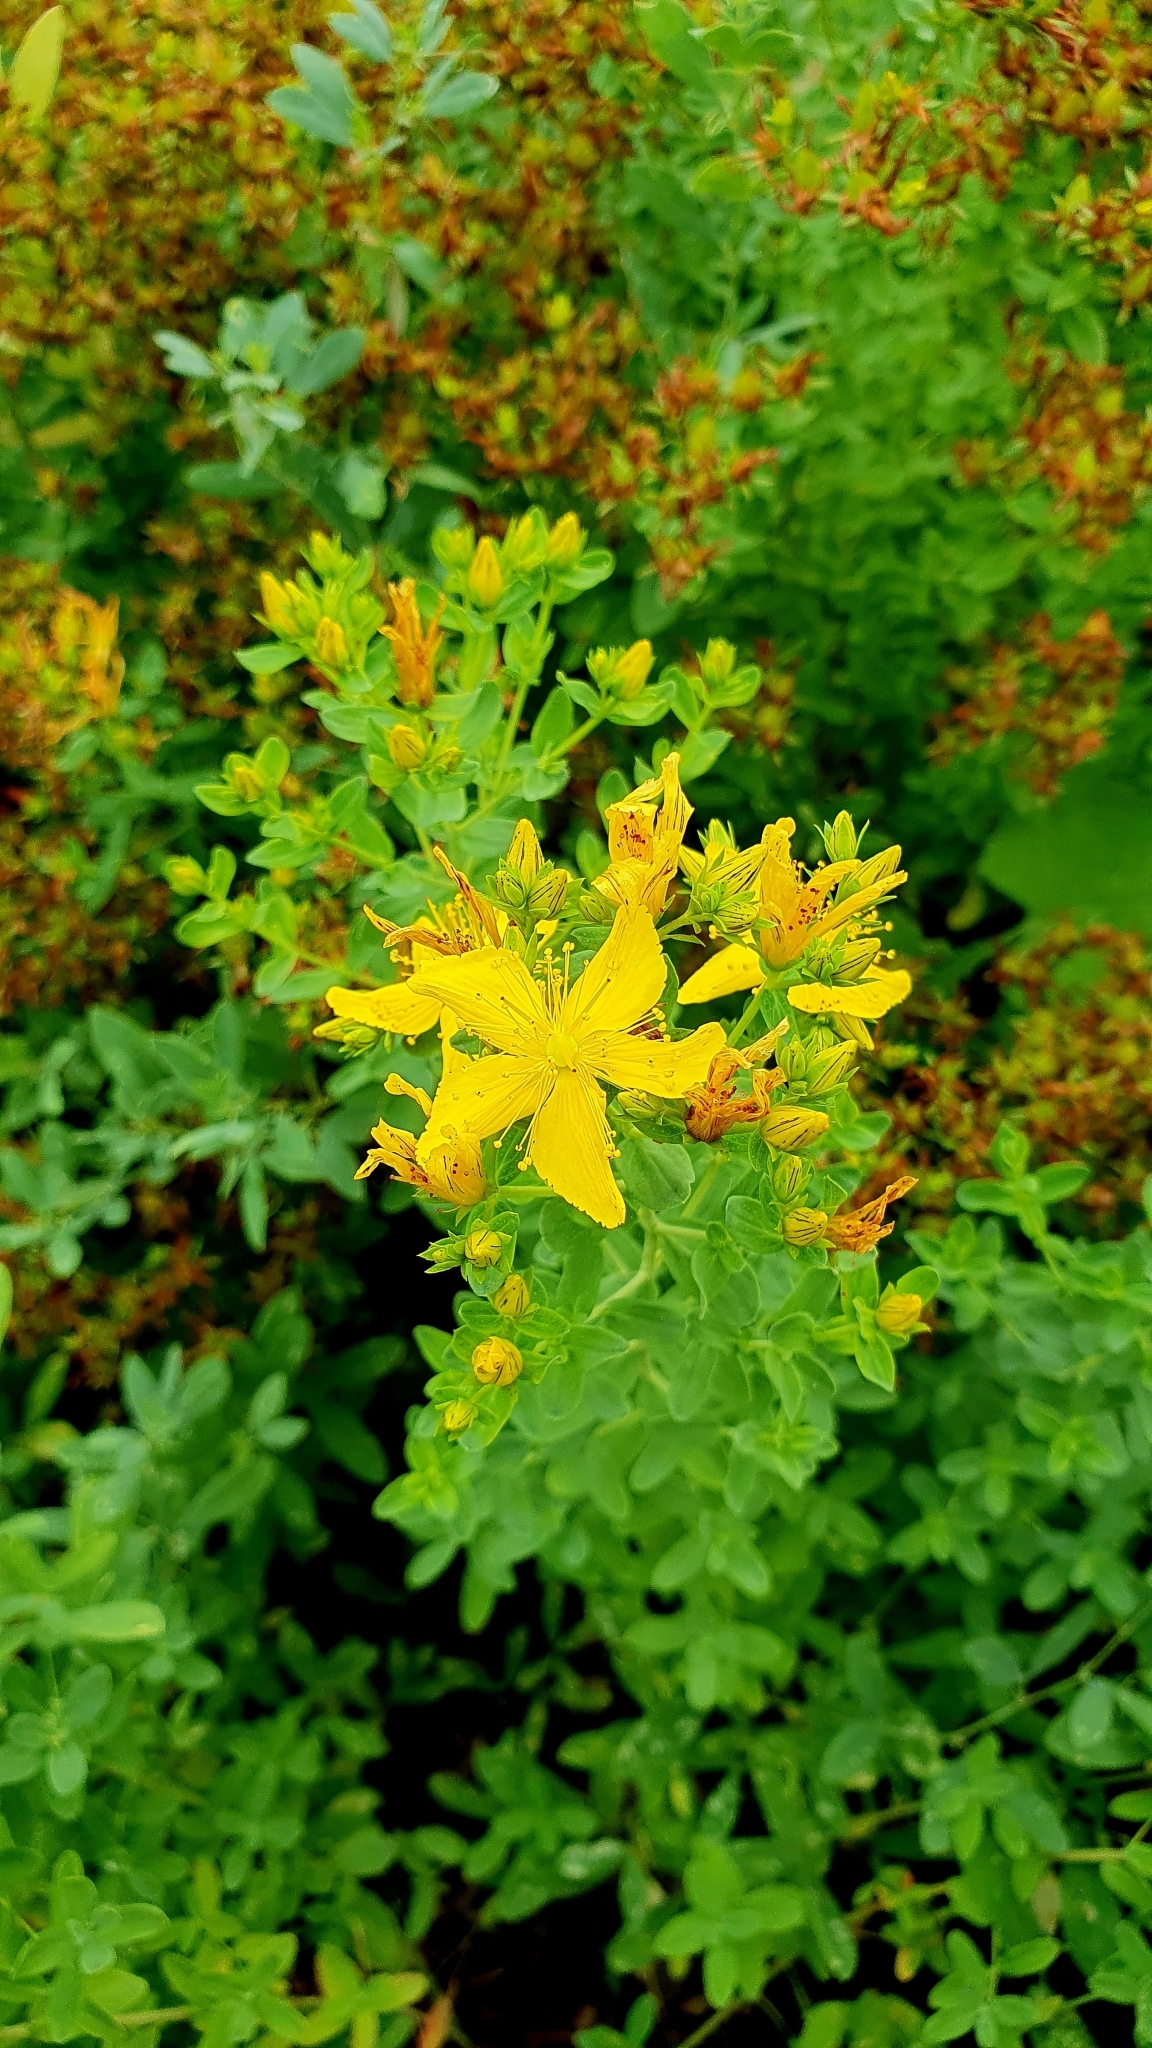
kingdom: Plantae
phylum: Tracheophyta
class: Magnoliopsida
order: Malpighiales
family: Hypericaceae
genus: Hypericum
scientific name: Hypericum perforatum
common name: Common st. johnswort
